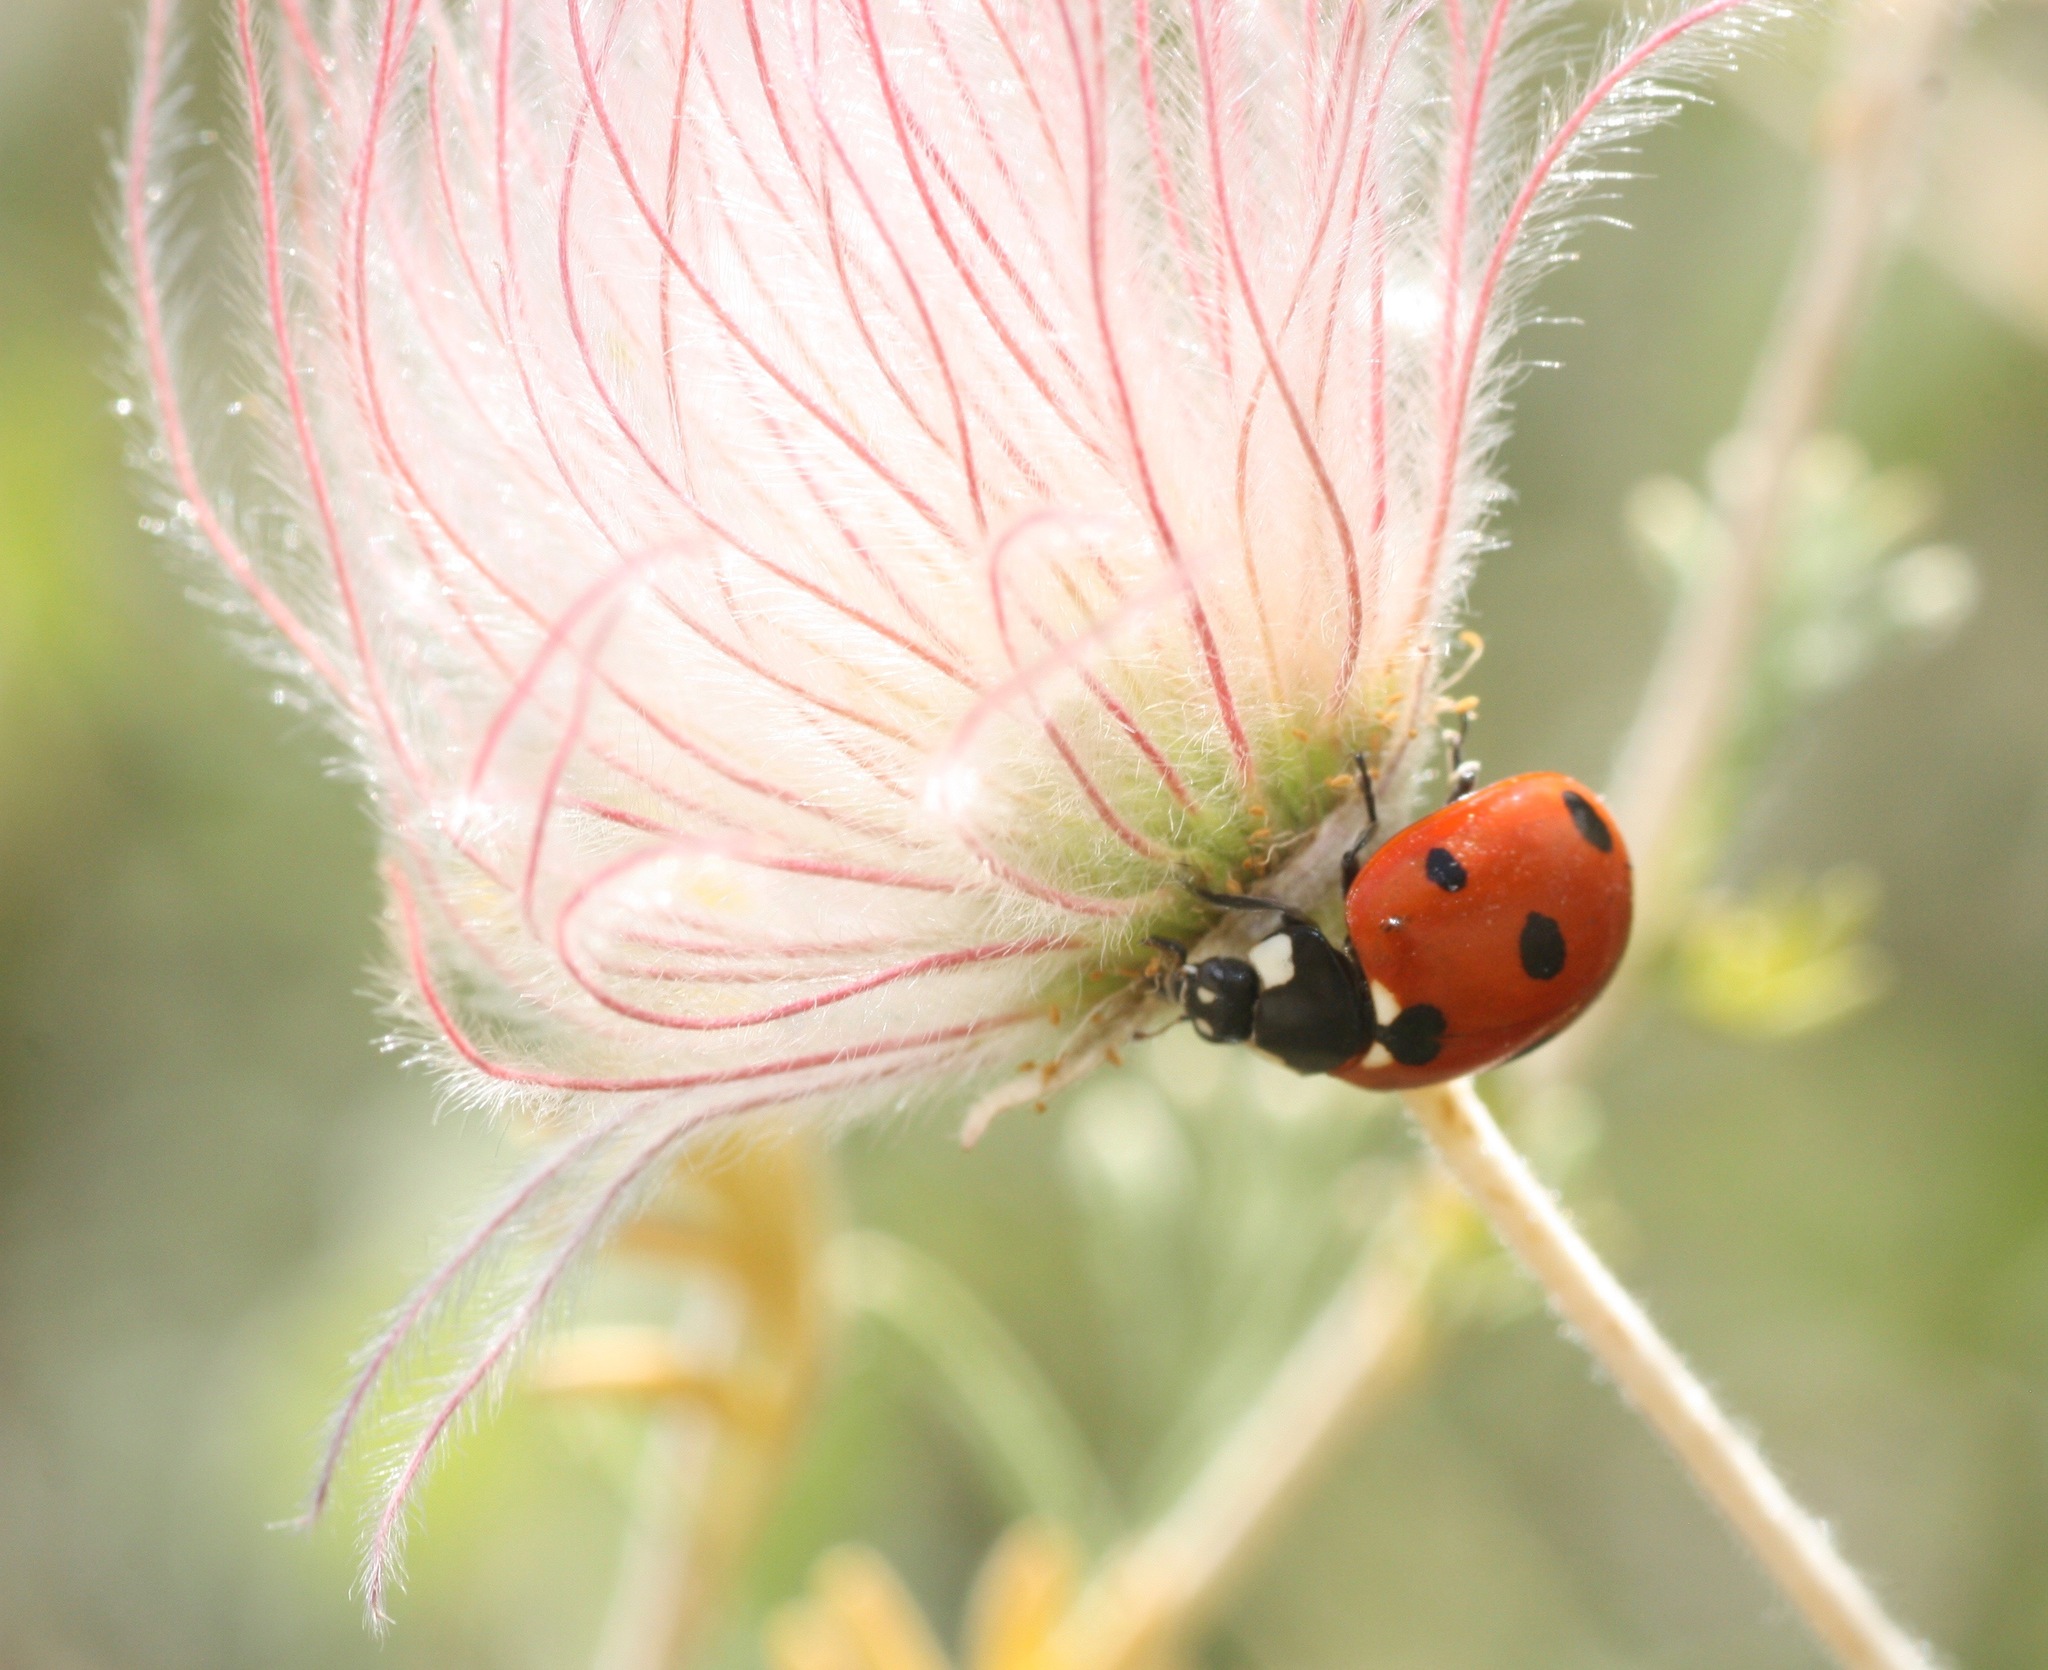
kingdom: Animalia
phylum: Arthropoda
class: Insecta
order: Coleoptera
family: Coccinellidae
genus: Coccinella
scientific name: Coccinella septempunctata
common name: Sevenspotted lady beetle
